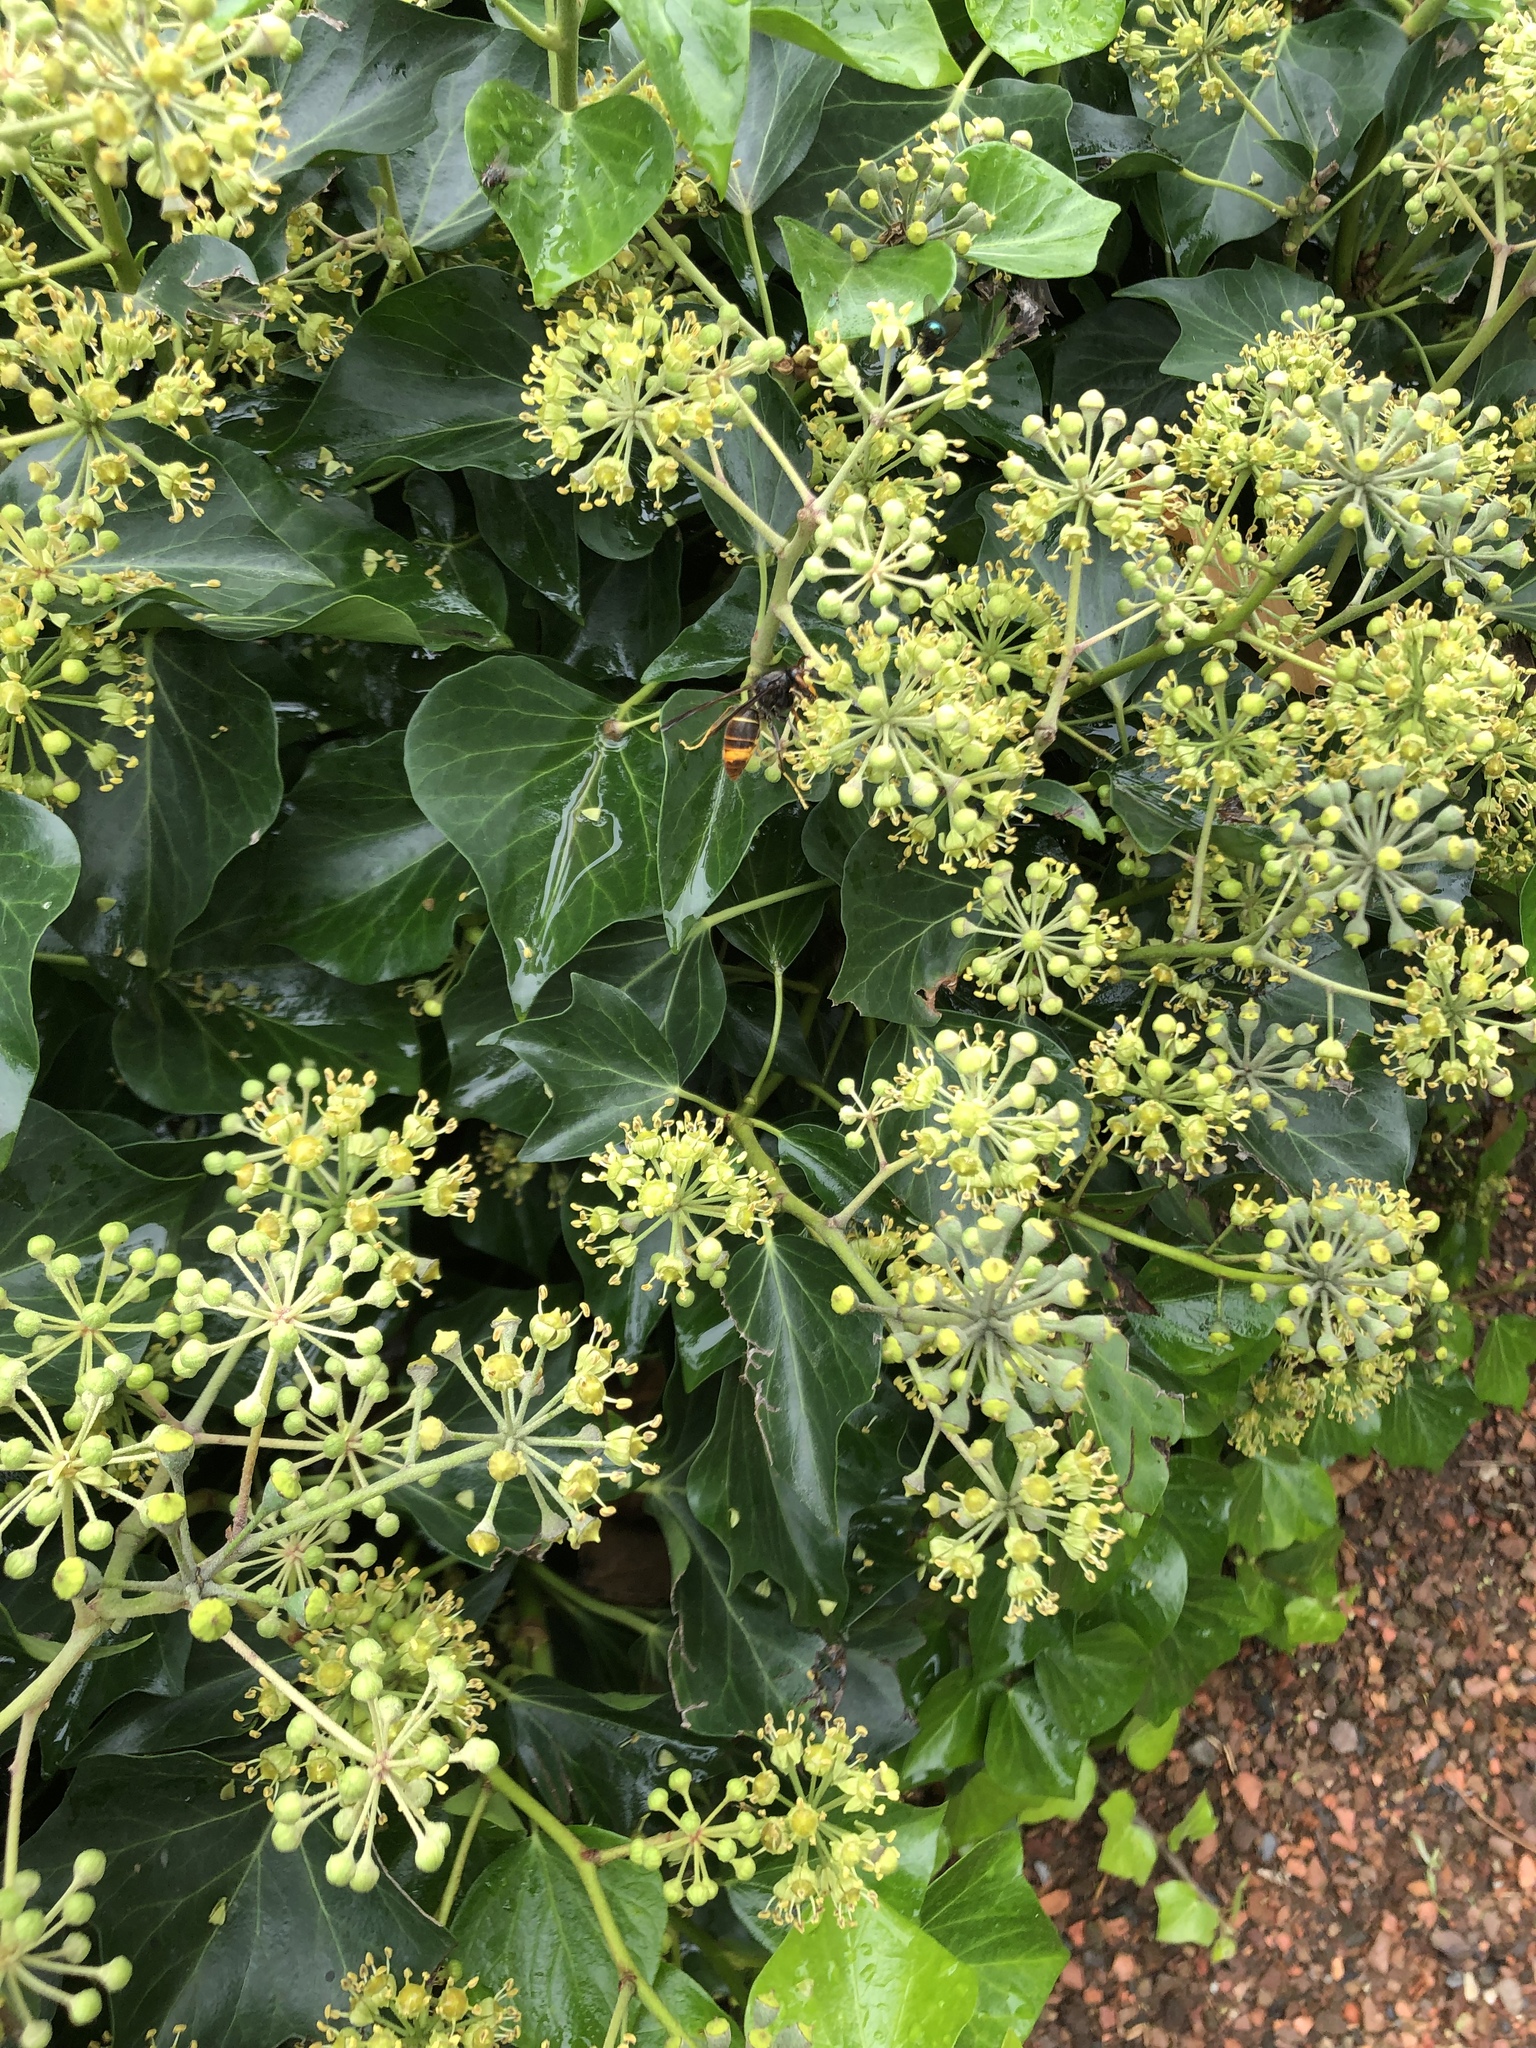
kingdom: Animalia
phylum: Arthropoda
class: Insecta
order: Hymenoptera
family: Vespidae
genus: Vespa
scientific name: Vespa velutina
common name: Asian hornet
